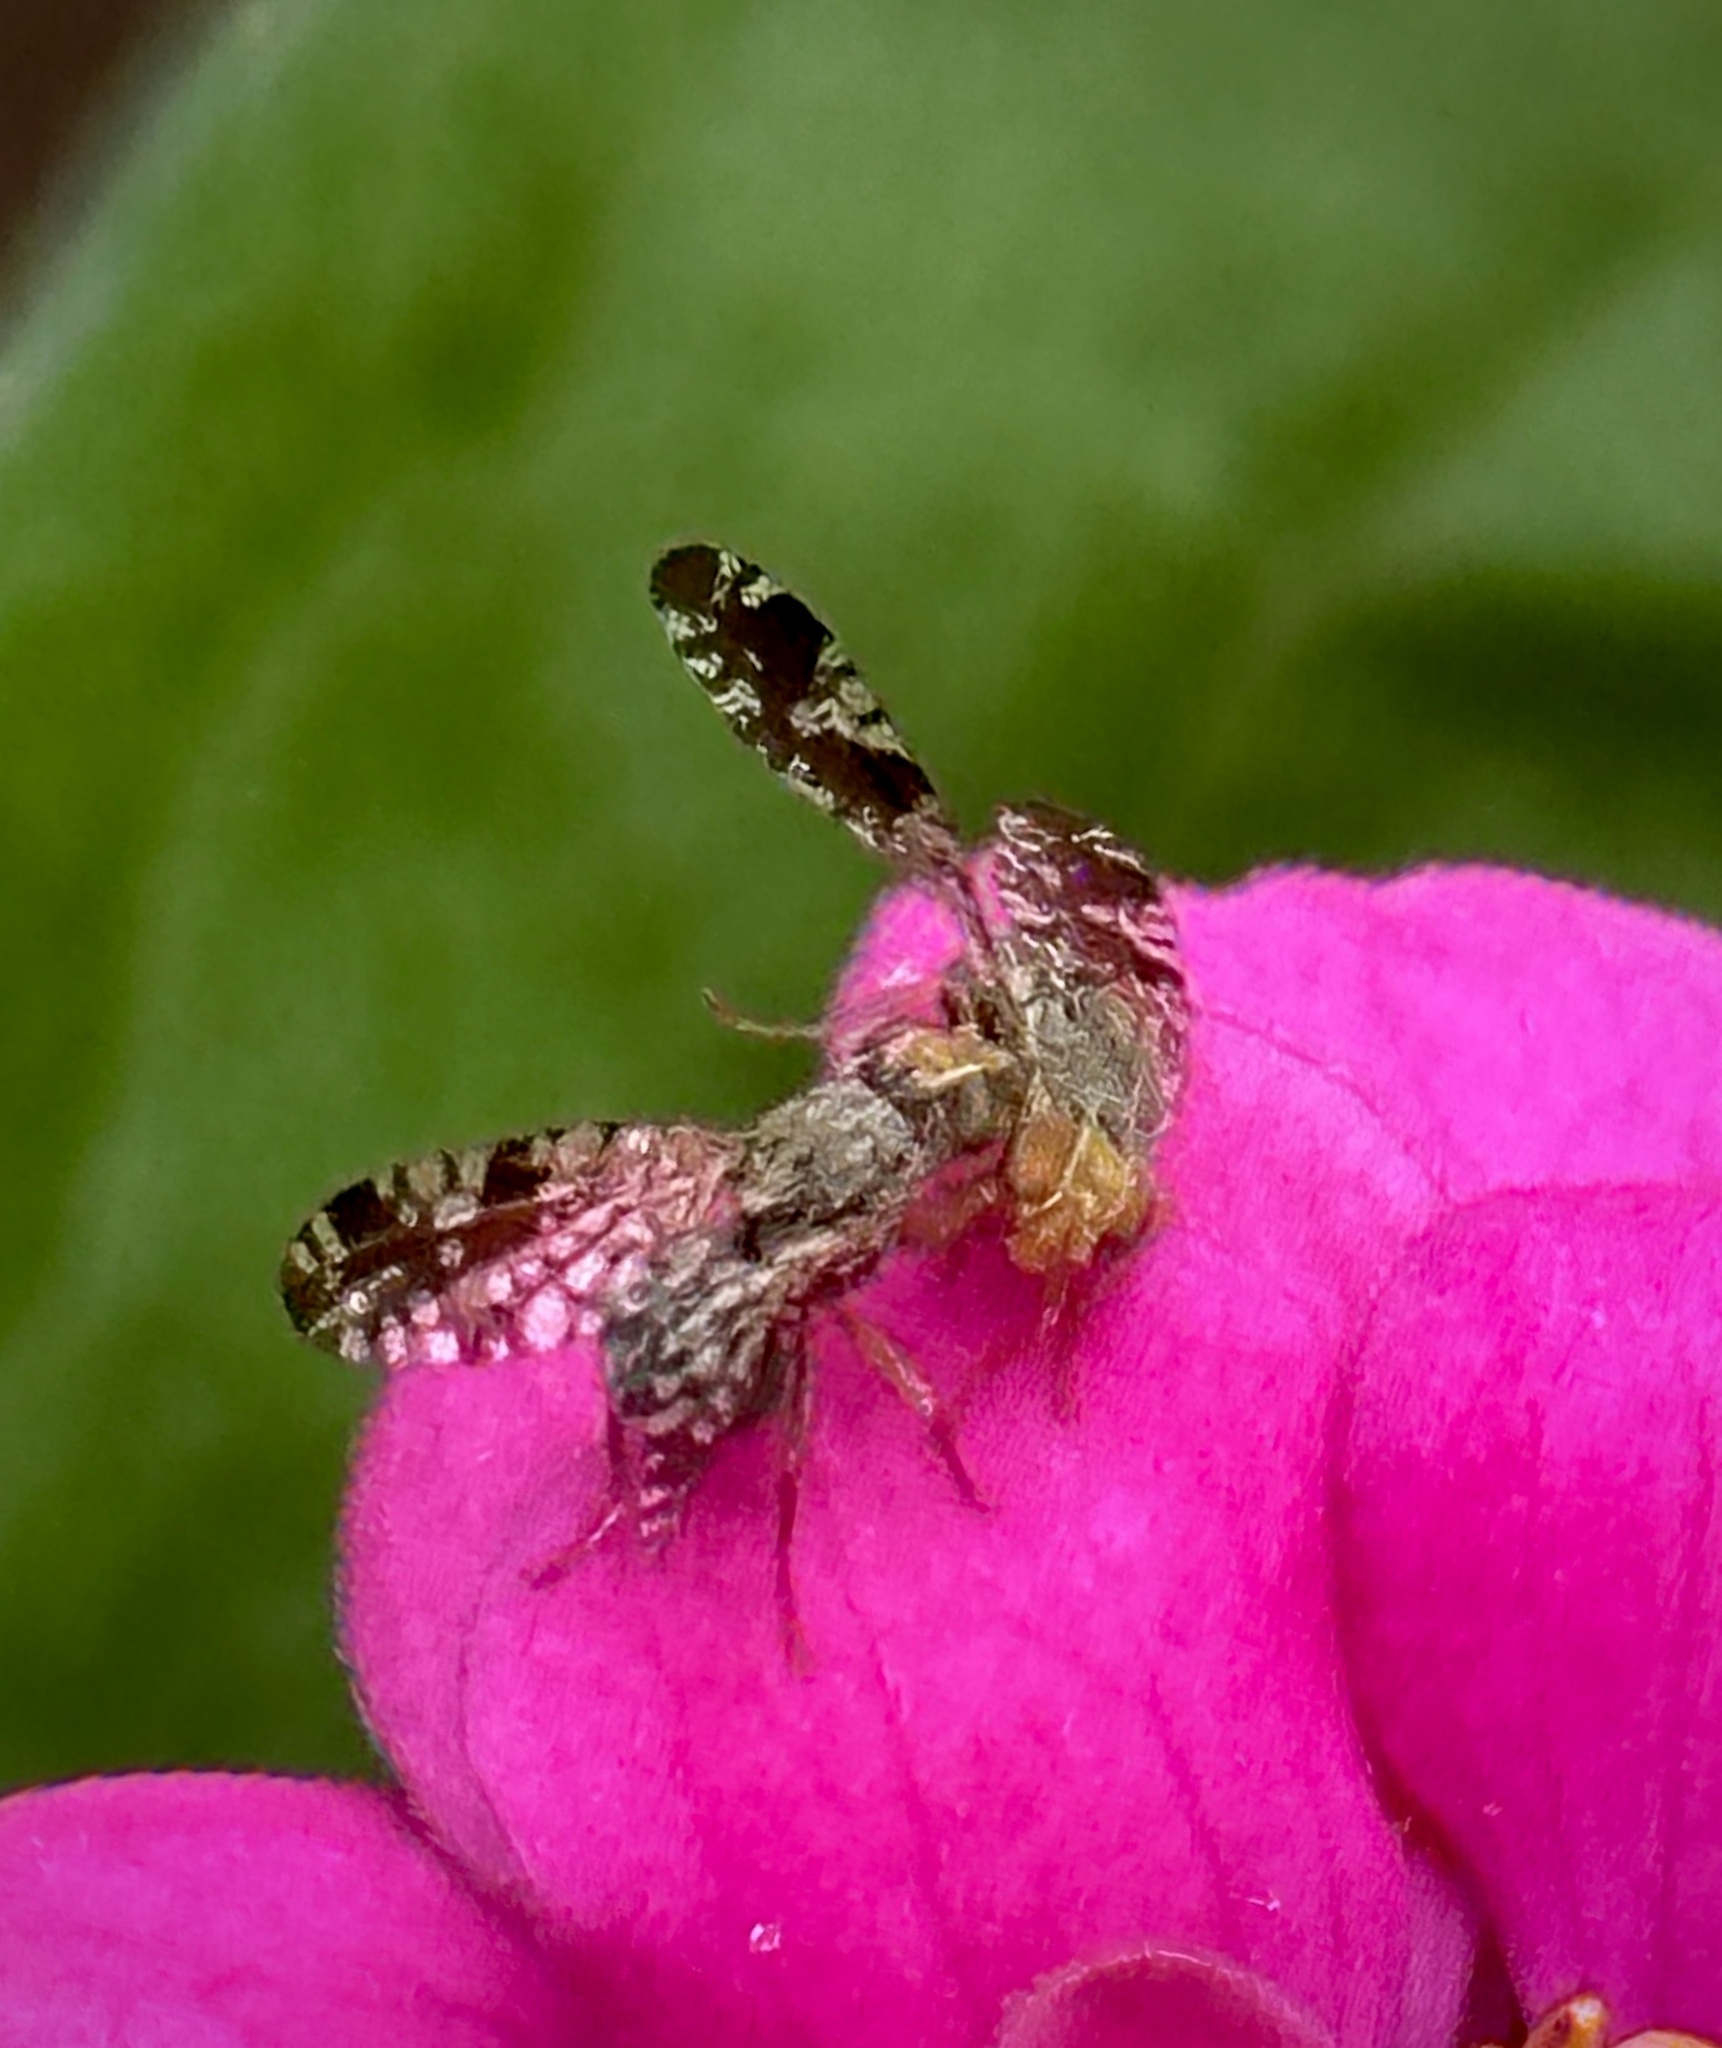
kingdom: Animalia
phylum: Arthropoda
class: Insecta
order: Diptera
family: Tephritidae
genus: Neotephritis
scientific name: Neotephritis finalis
